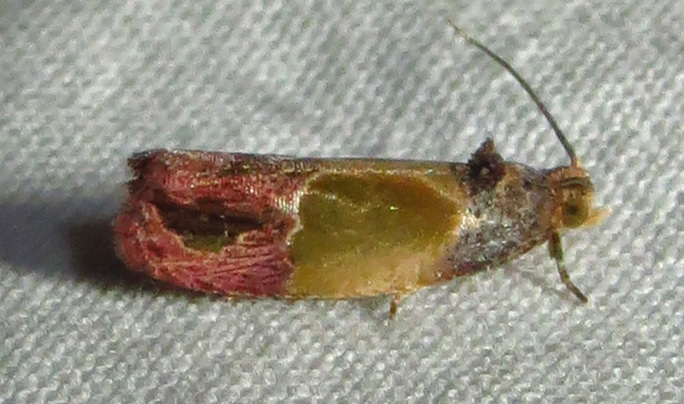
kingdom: Animalia
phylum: Arthropoda
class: Insecta
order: Lepidoptera
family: Tortricidae
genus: Eumarozia
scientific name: Eumarozia malachitana
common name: Sculptured moth
